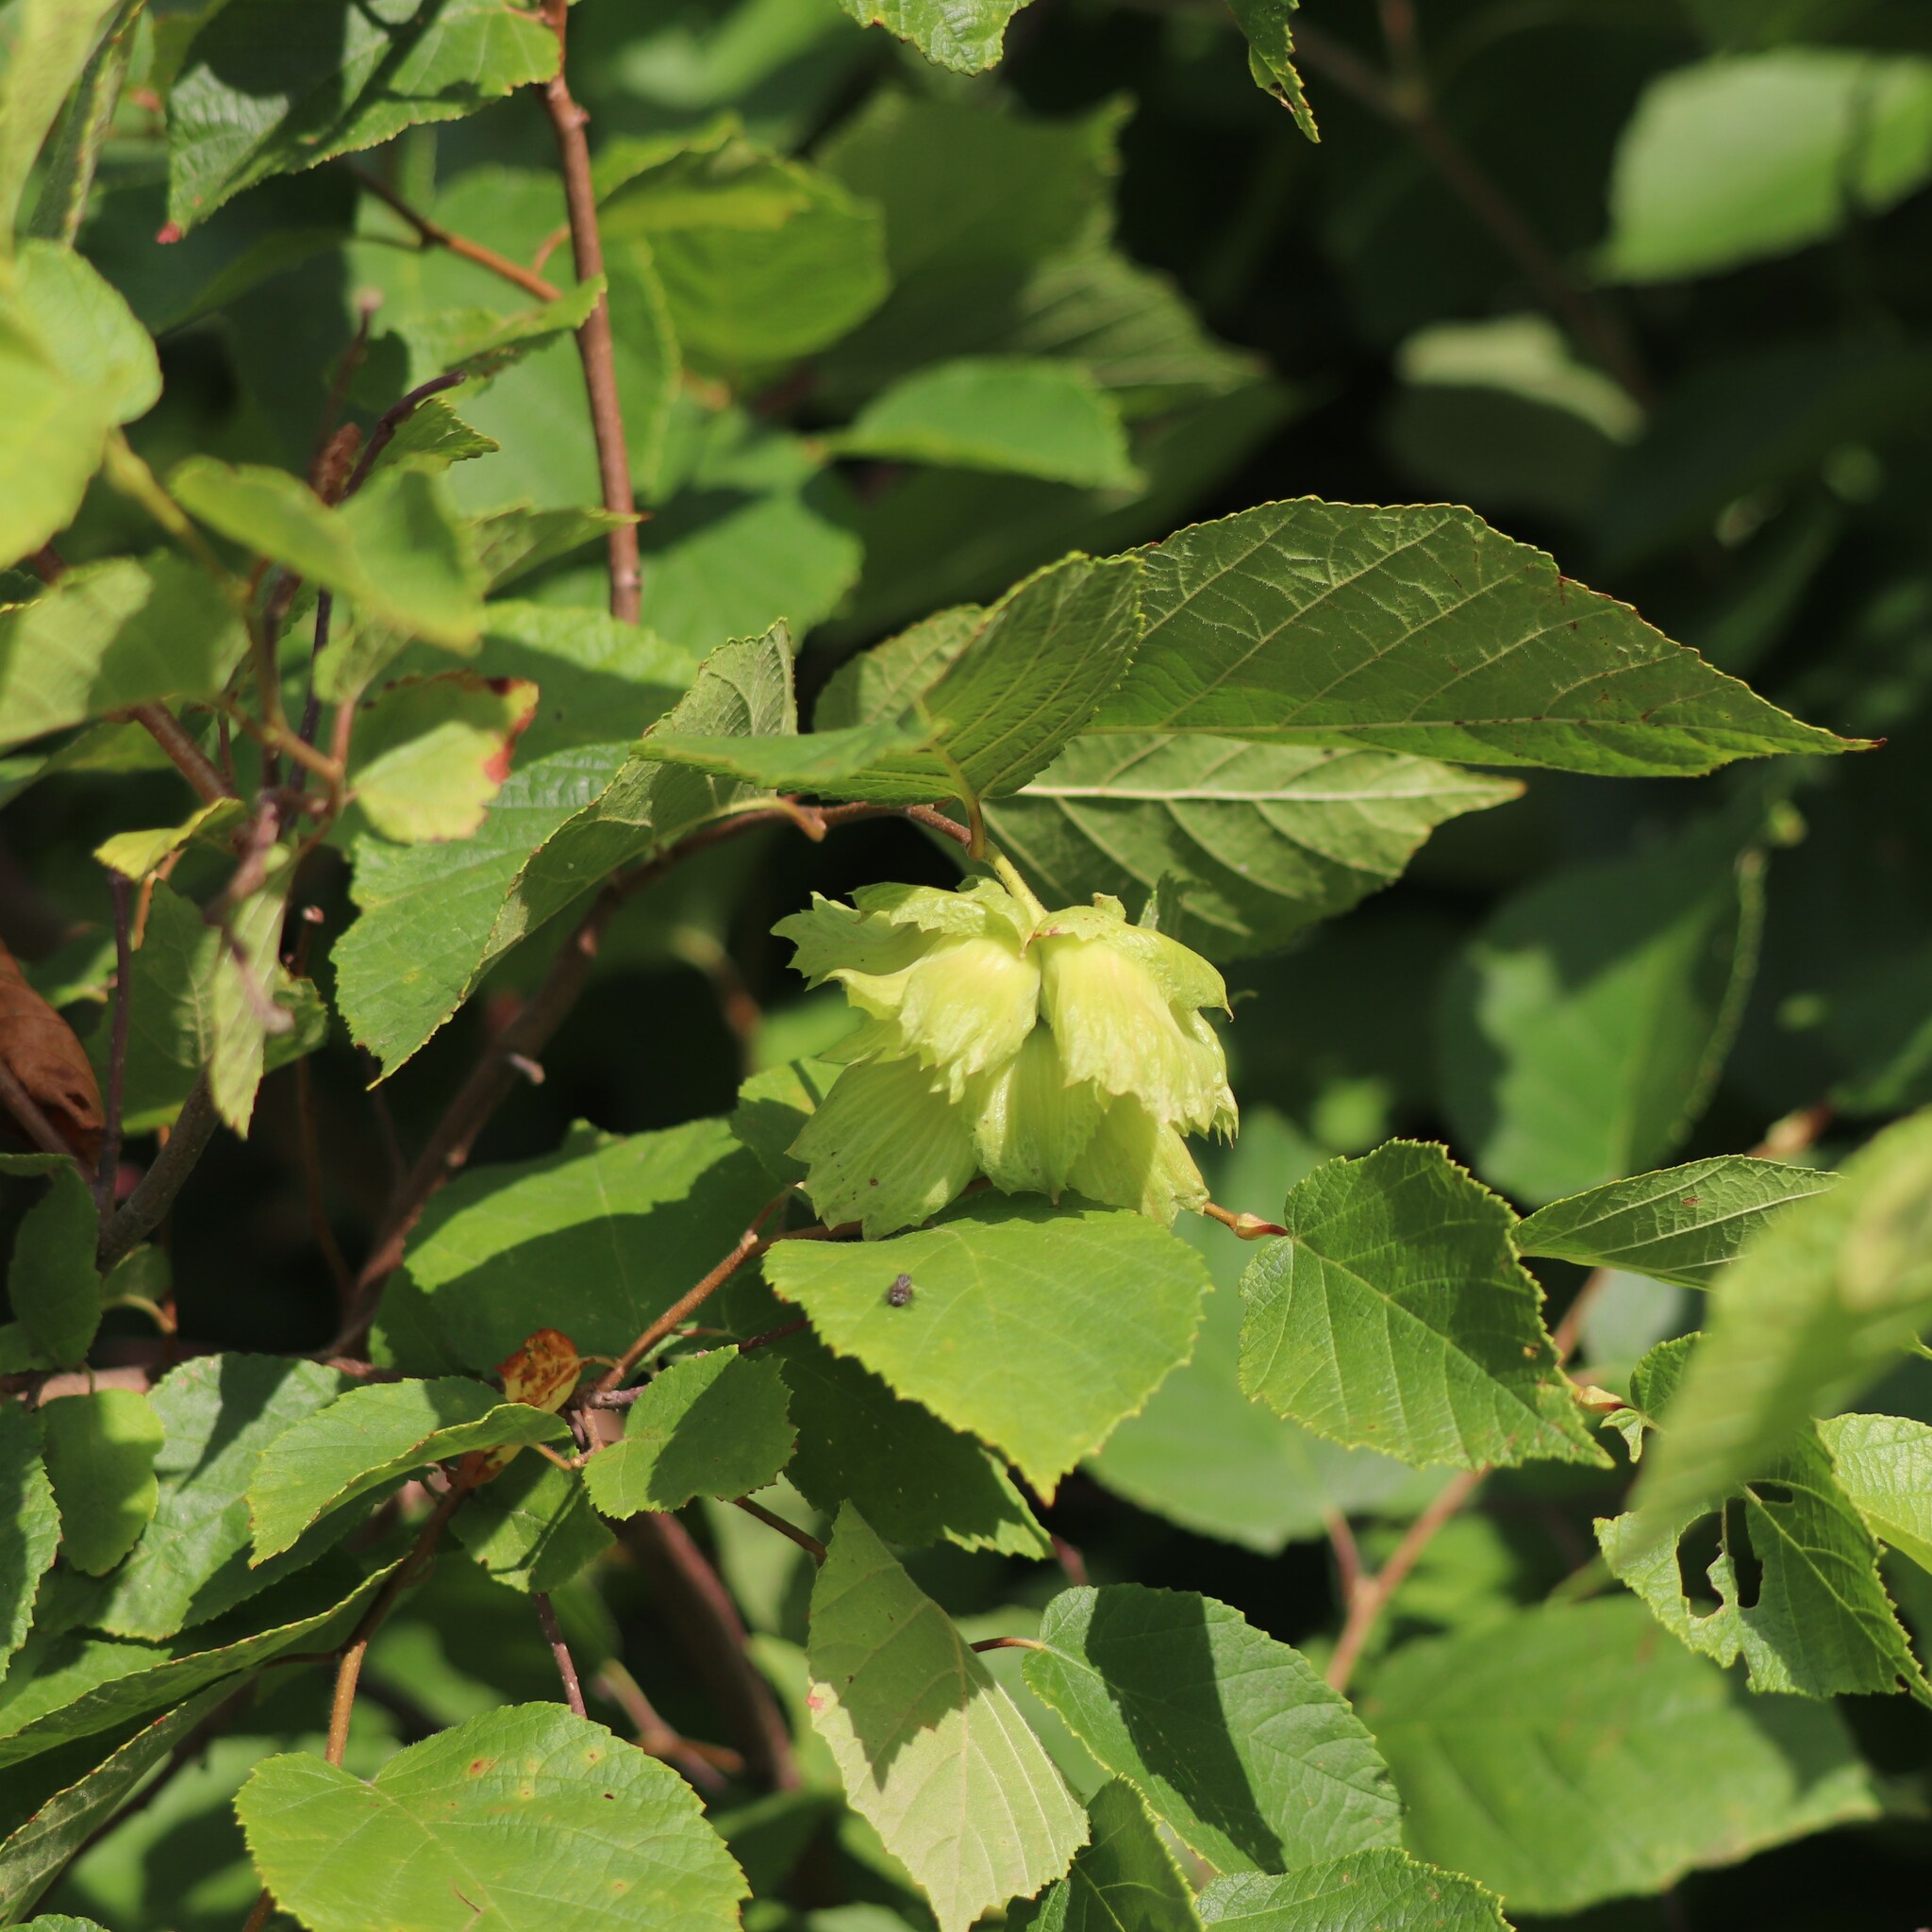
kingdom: Plantae
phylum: Tracheophyta
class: Magnoliopsida
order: Fagales
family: Betulaceae
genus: Corylus
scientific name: Corylus americana
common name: American hazel
